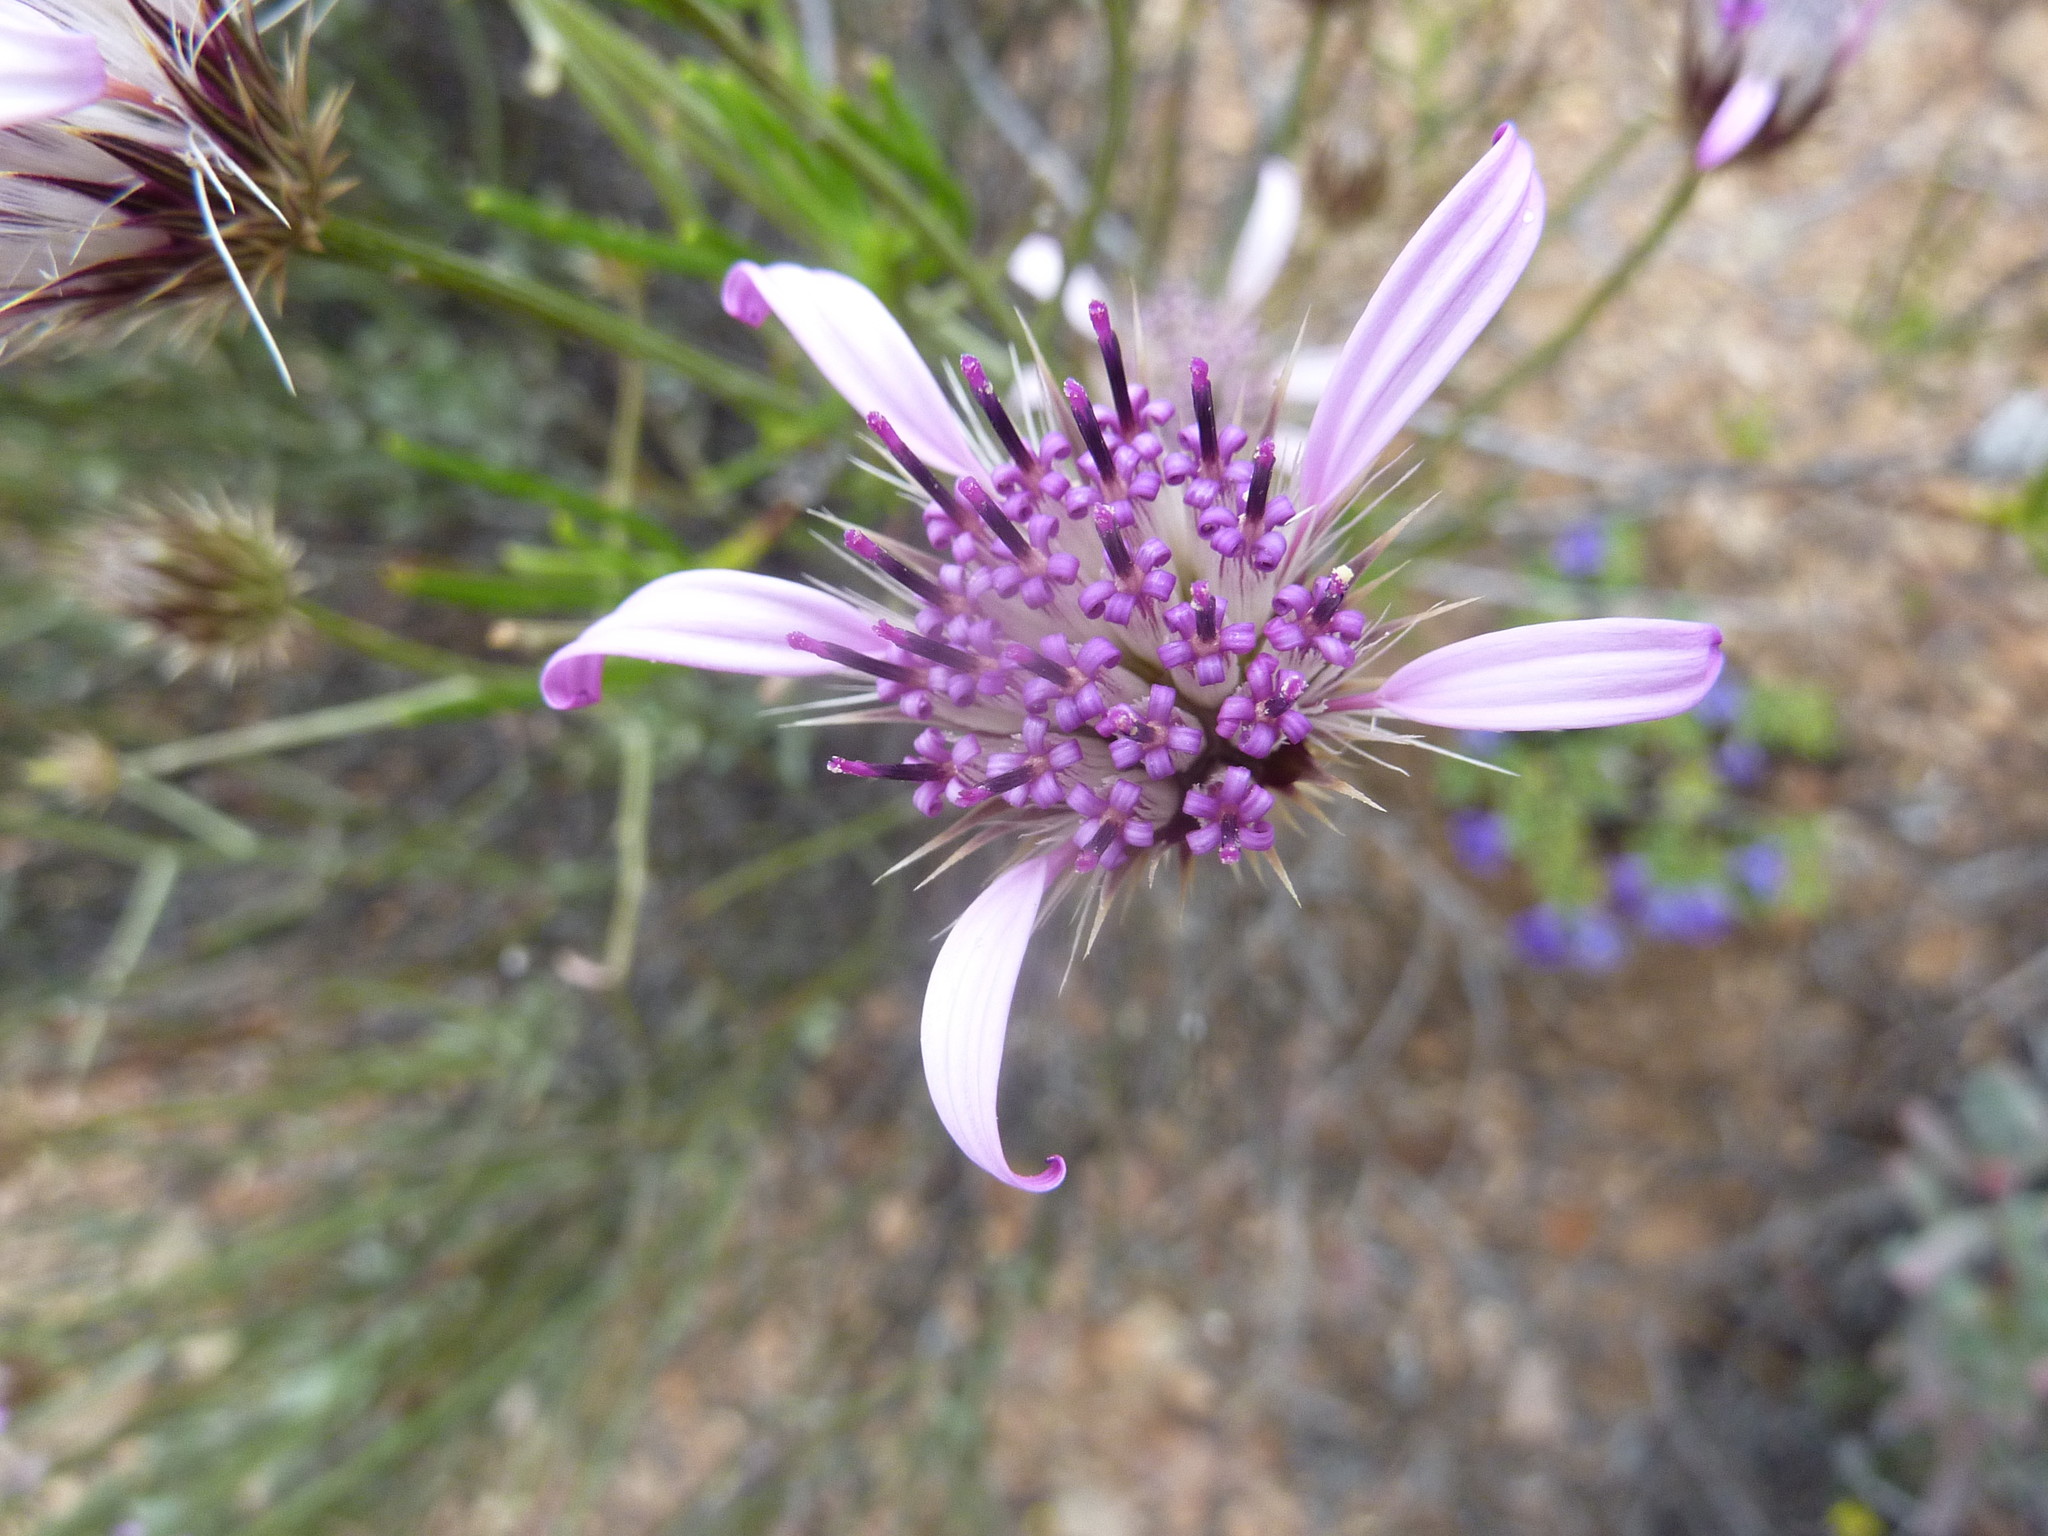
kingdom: Plantae
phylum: Tracheophyta
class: Magnoliopsida
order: Asterales
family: Asteraceae
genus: Dicoma
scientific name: Dicoma picta
